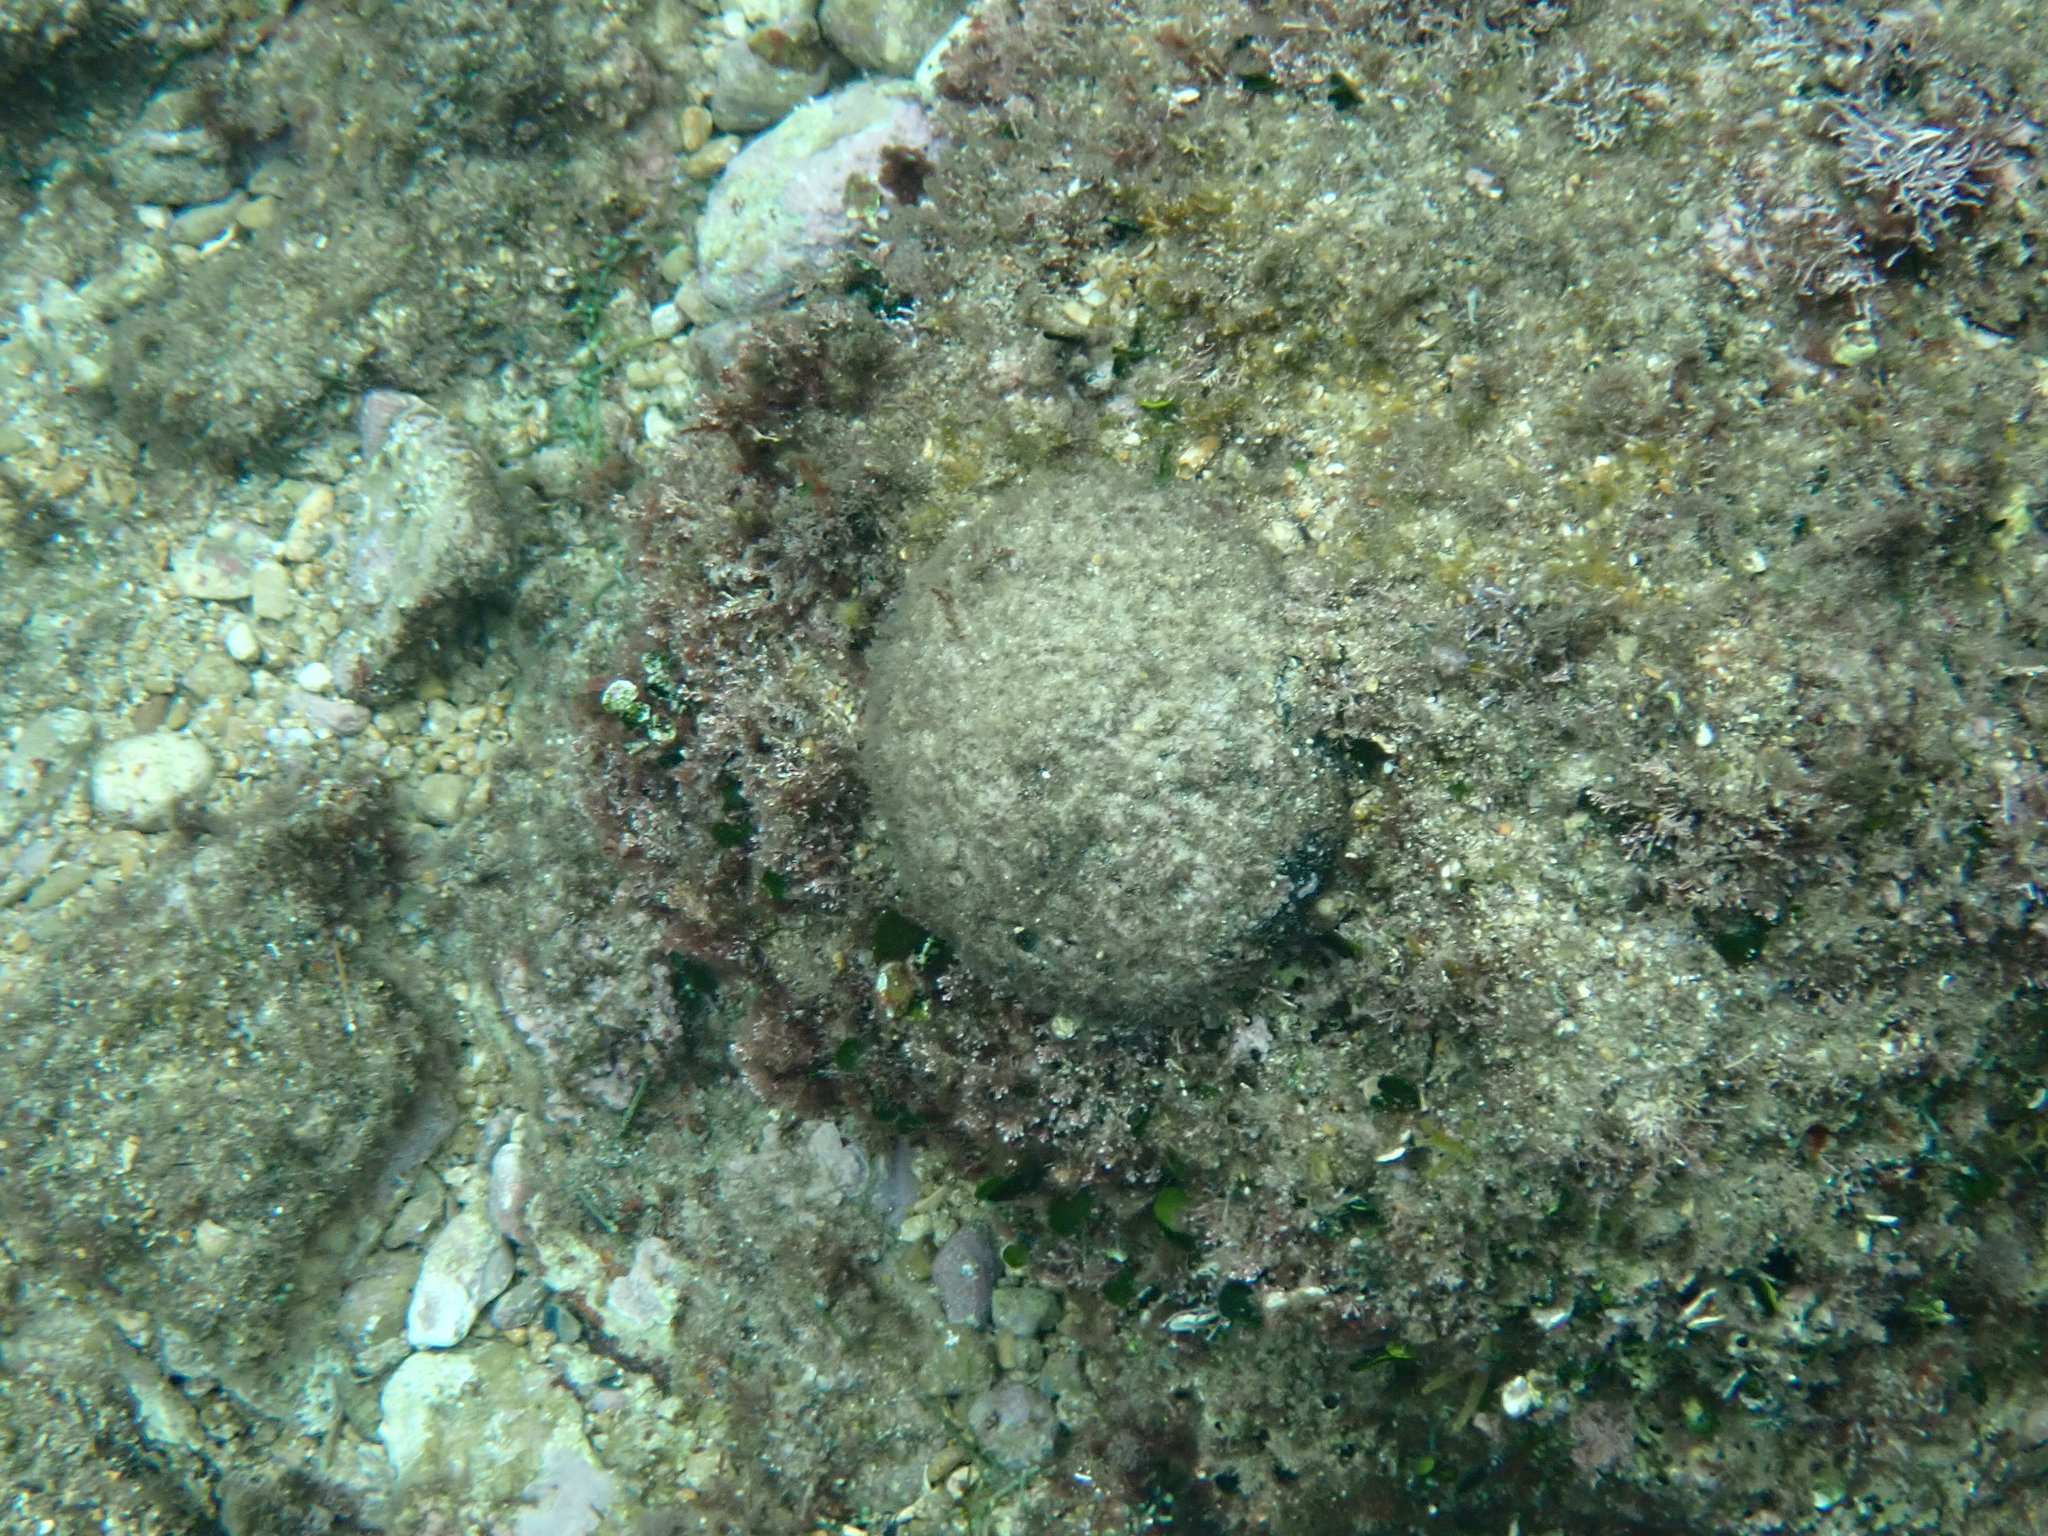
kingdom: Plantae
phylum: Chlorophyta
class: Ulvophyceae
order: Bryopsidales
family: Codiaceae
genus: Codium
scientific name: Codium bursa
